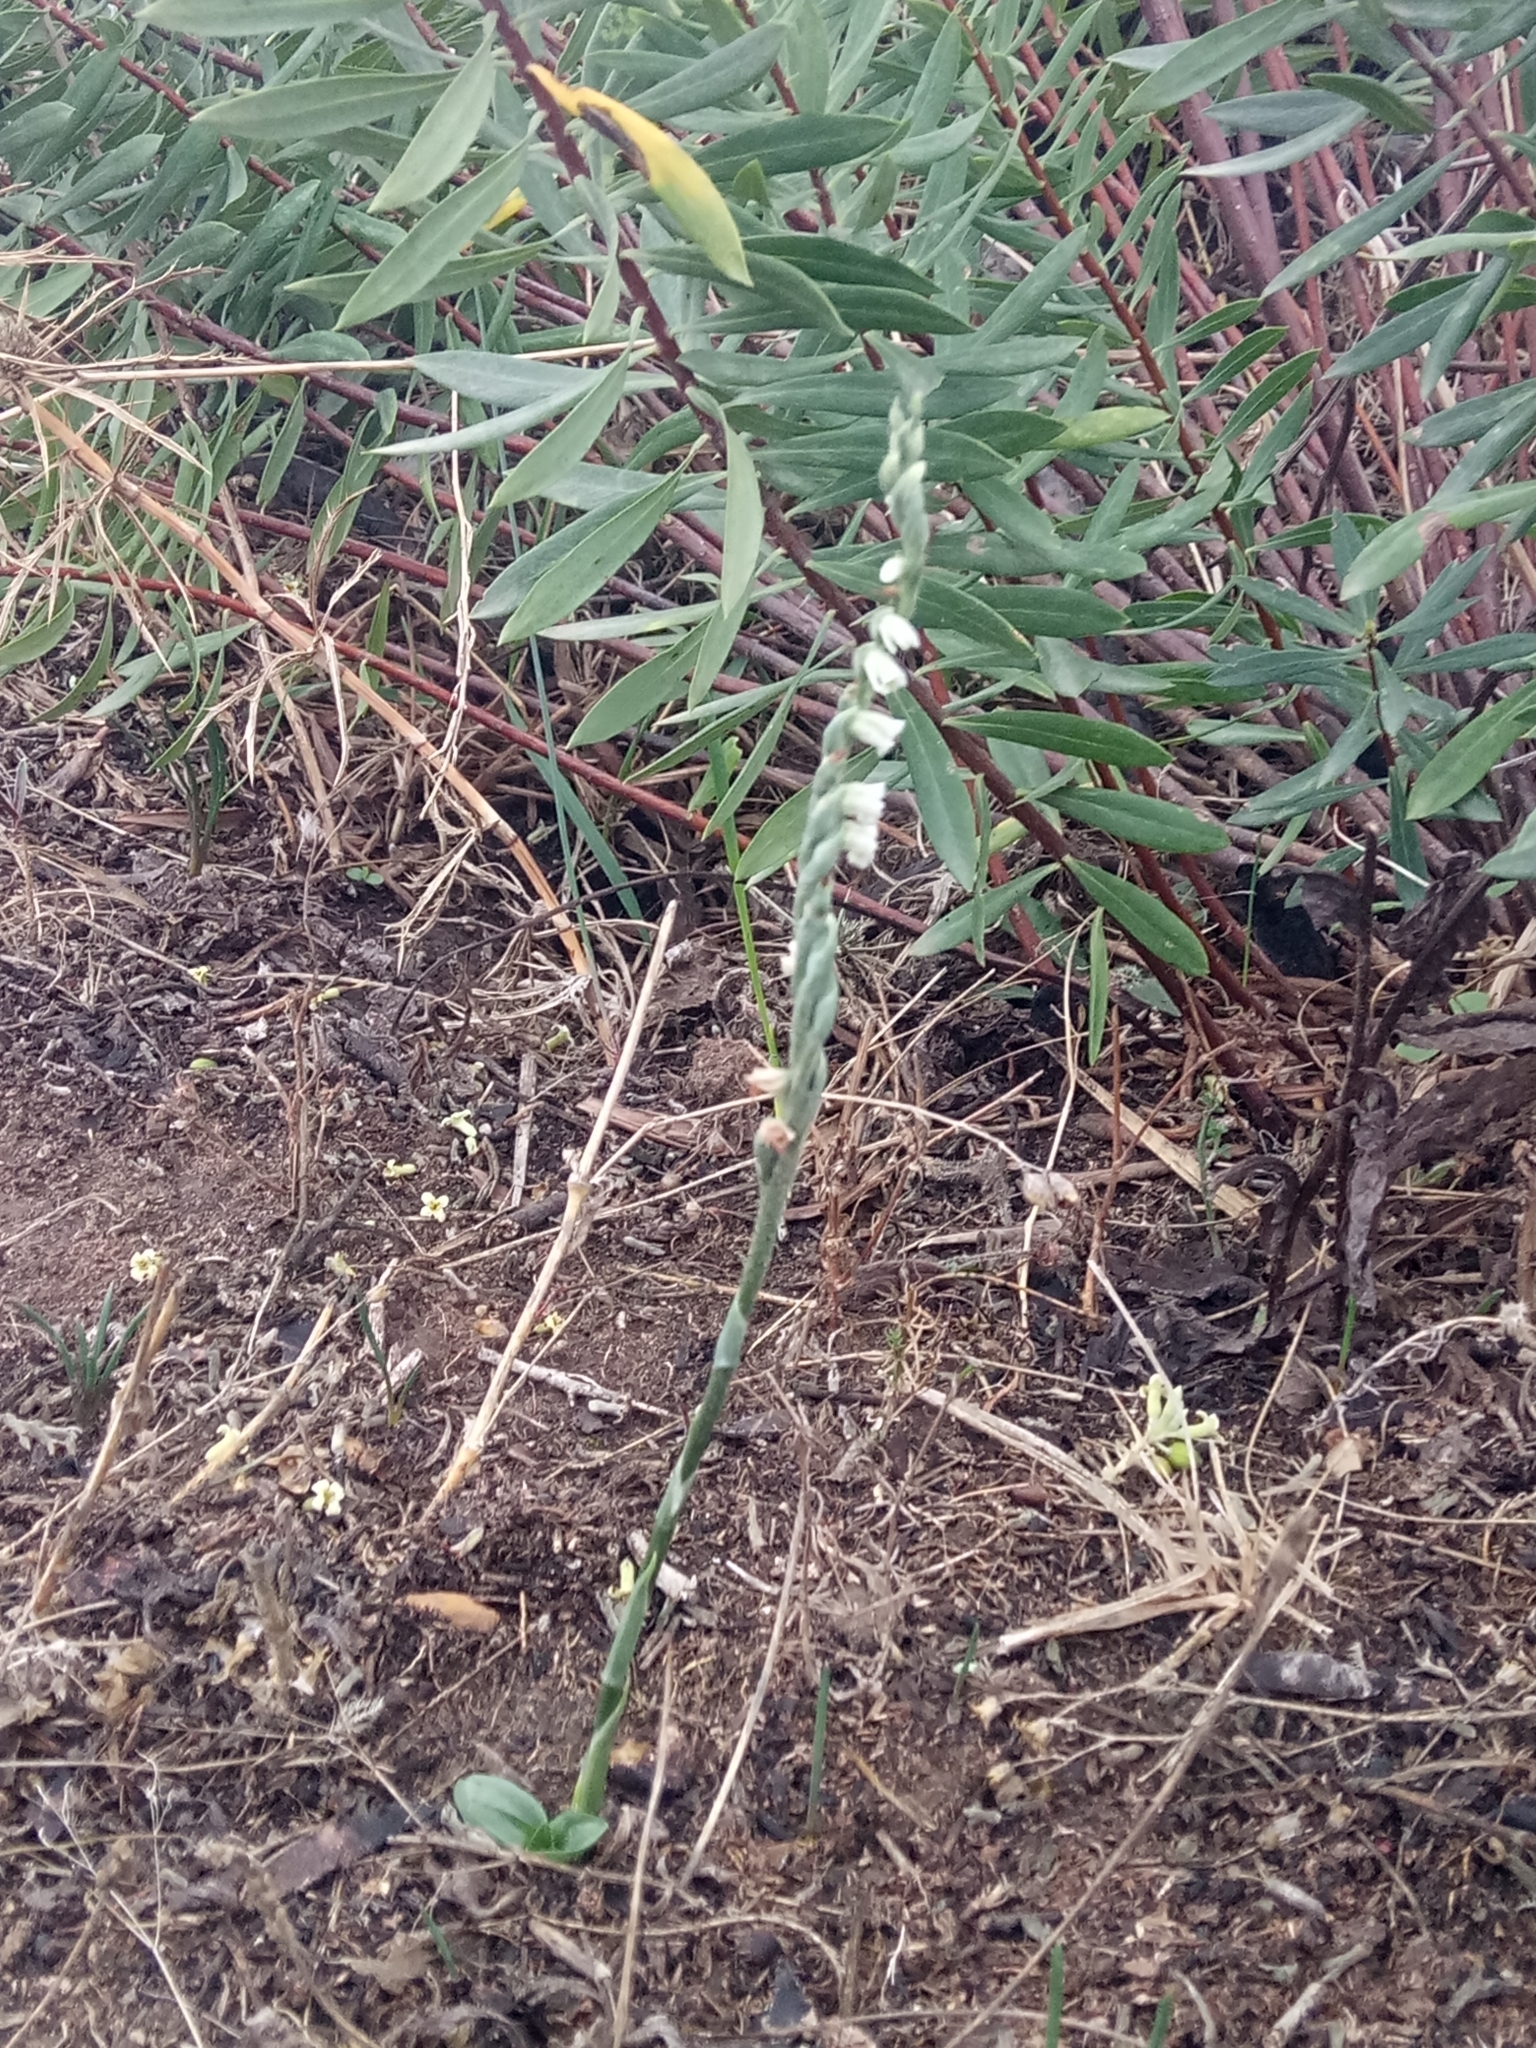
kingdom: Plantae
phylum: Tracheophyta
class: Liliopsida
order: Asparagales
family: Orchidaceae
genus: Spiranthes
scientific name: Spiranthes spiralis
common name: Autumn lady's-tresses
